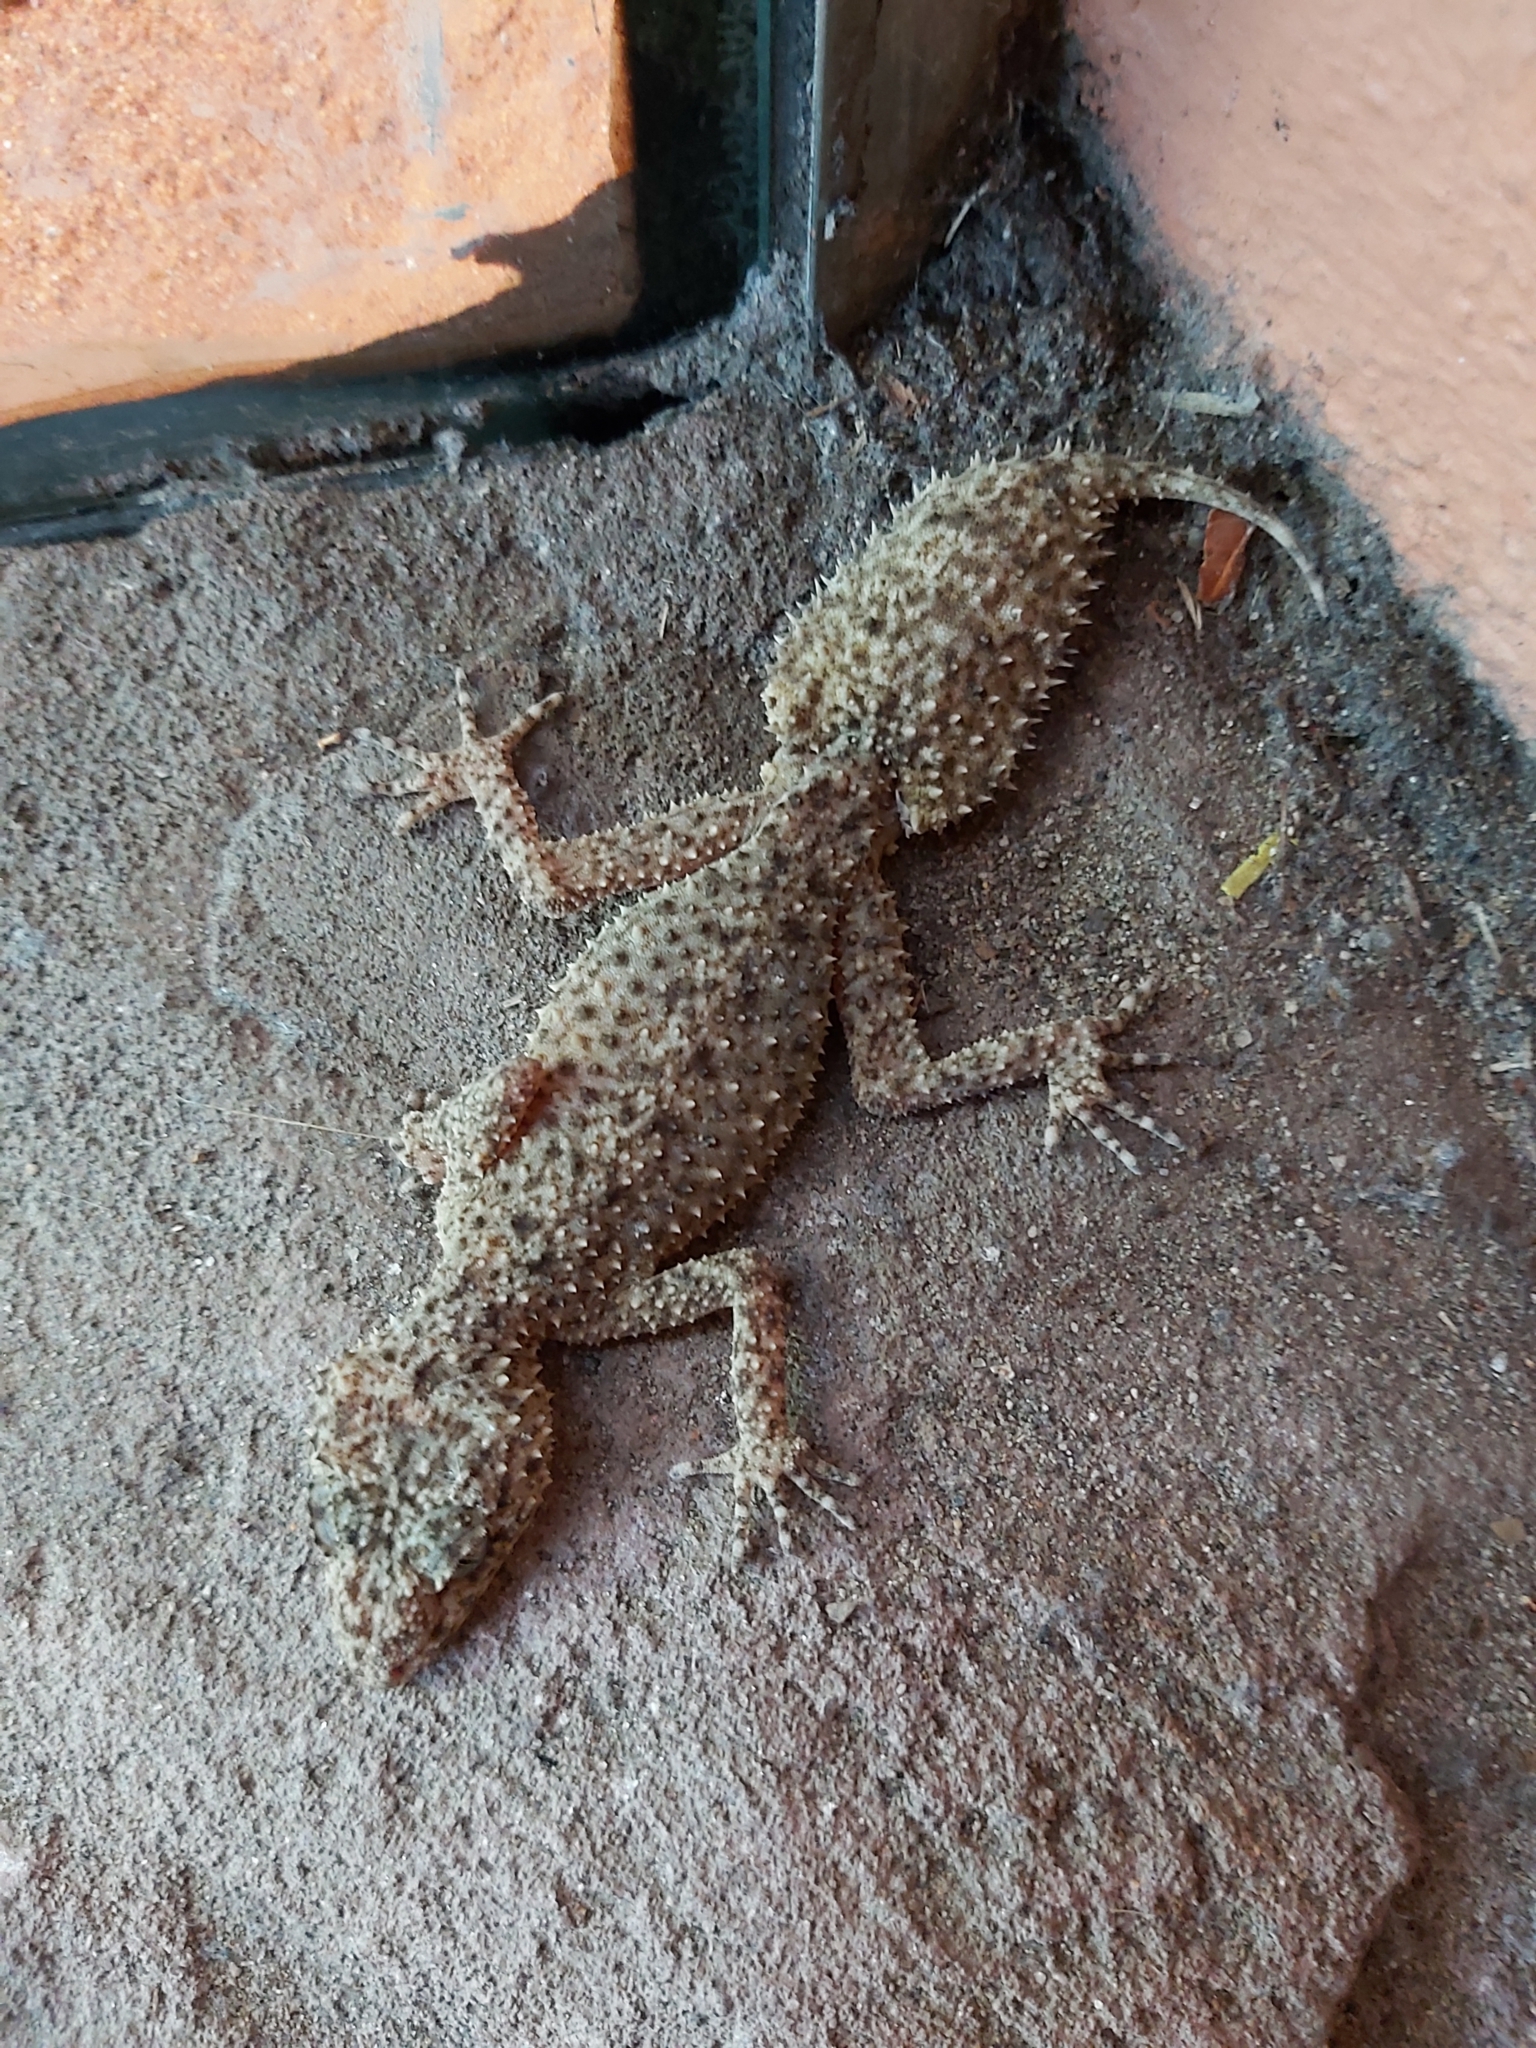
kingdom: Animalia
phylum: Chordata
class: Squamata
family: Carphodactylidae
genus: Phyllurus
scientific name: Phyllurus platurus
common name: Broad-tailed gecko
